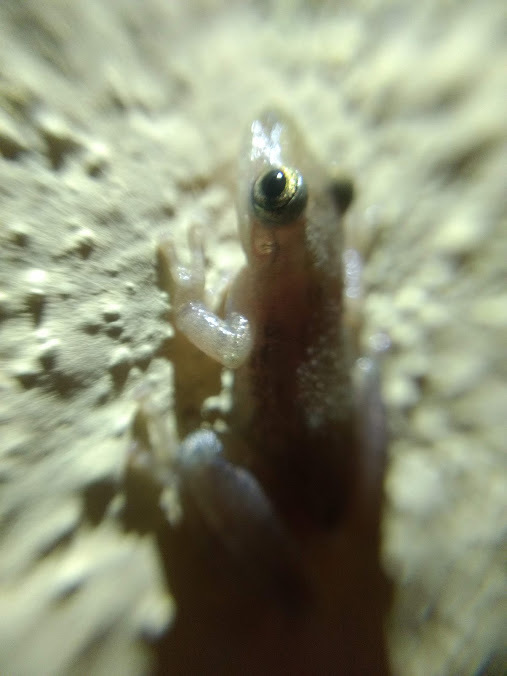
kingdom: Animalia
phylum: Chordata
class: Amphibia
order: Anura
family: Hylidae
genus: Scinax
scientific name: Scinax staufferi
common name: Stauffer's long-nosed treefrog
